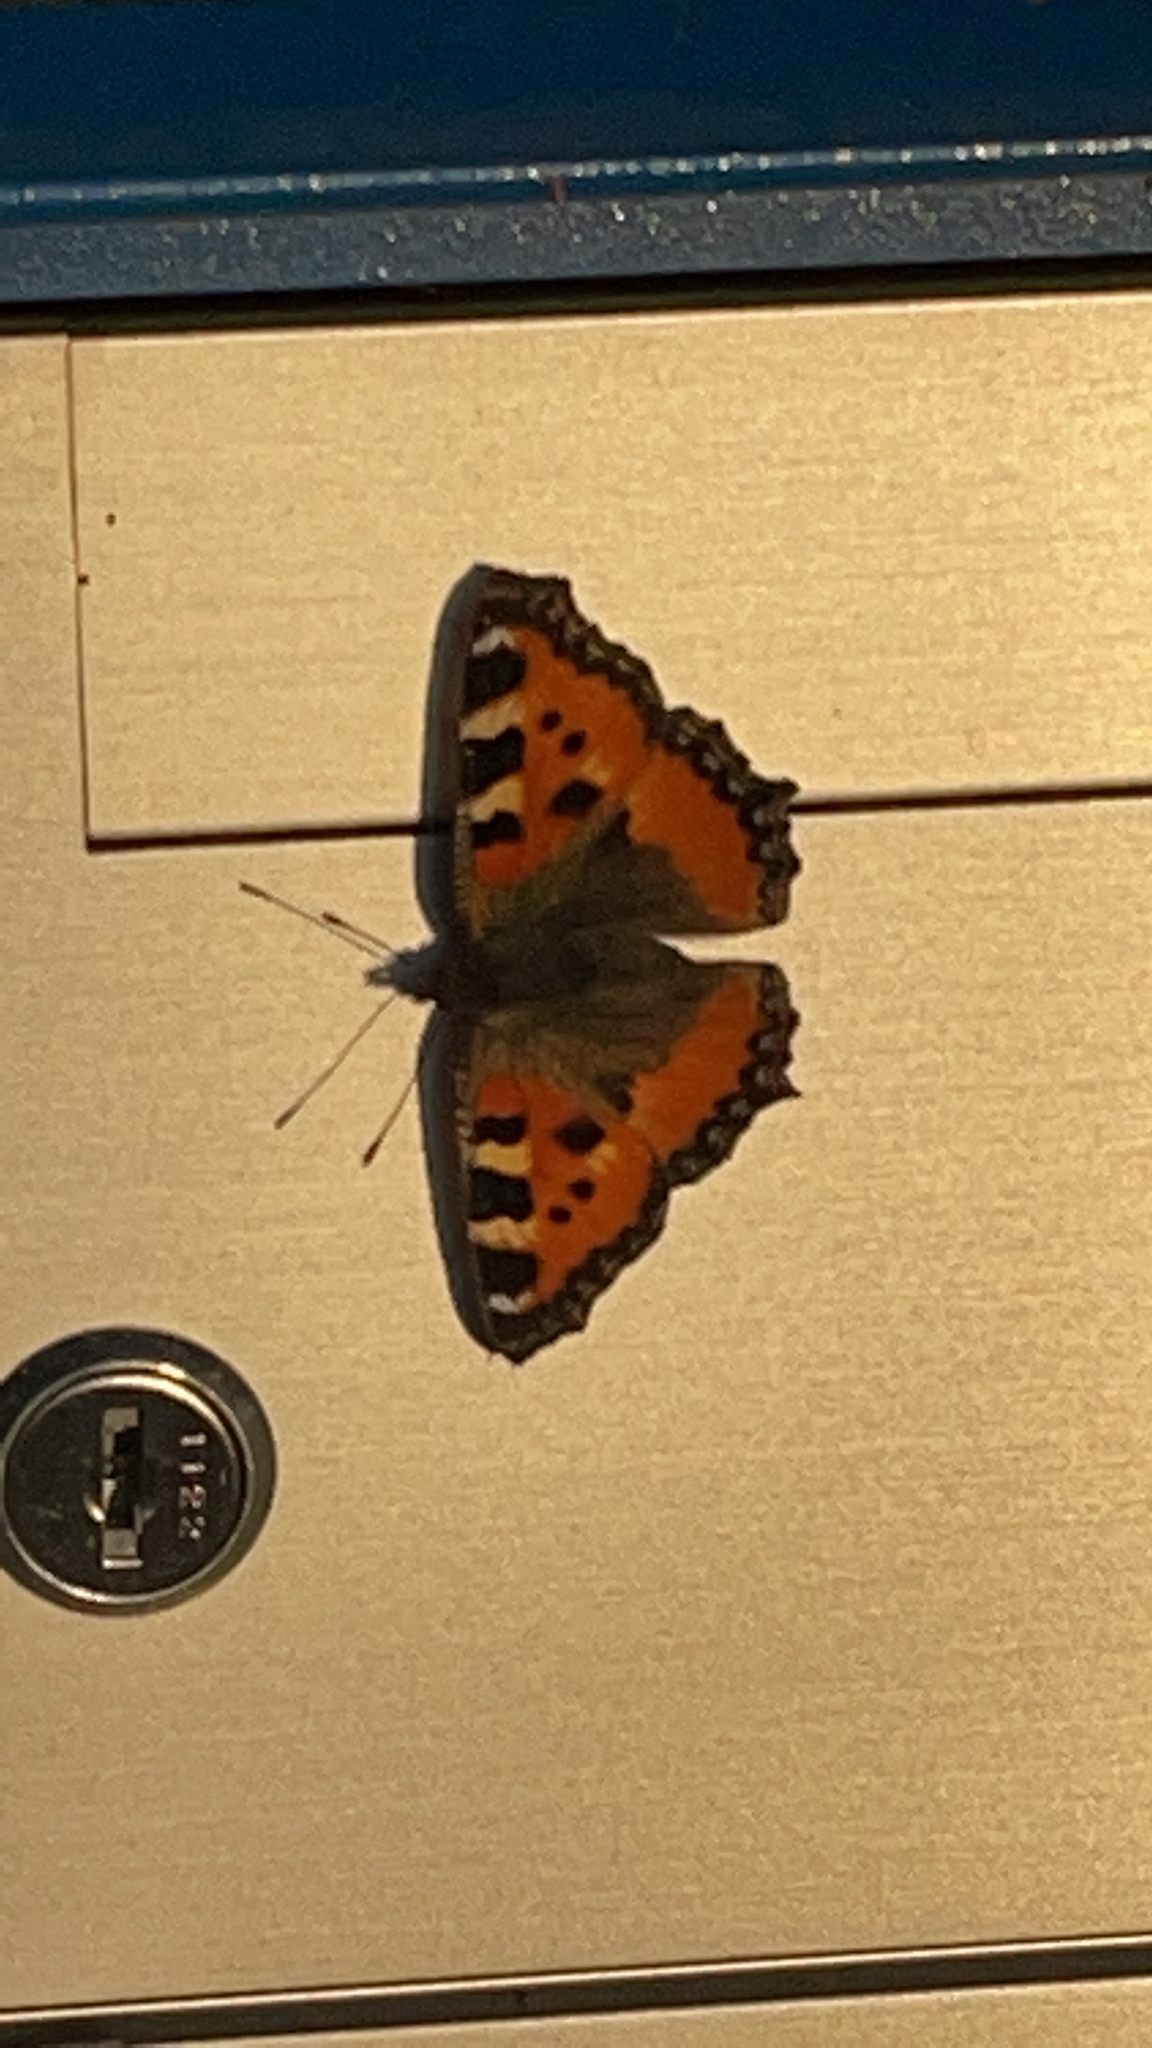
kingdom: Animalia
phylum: Arthropoda
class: Insecta
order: Lepidoptera
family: Nymphalidae
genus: Aglais
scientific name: Aglais urticae
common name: Small tortoiseshell
